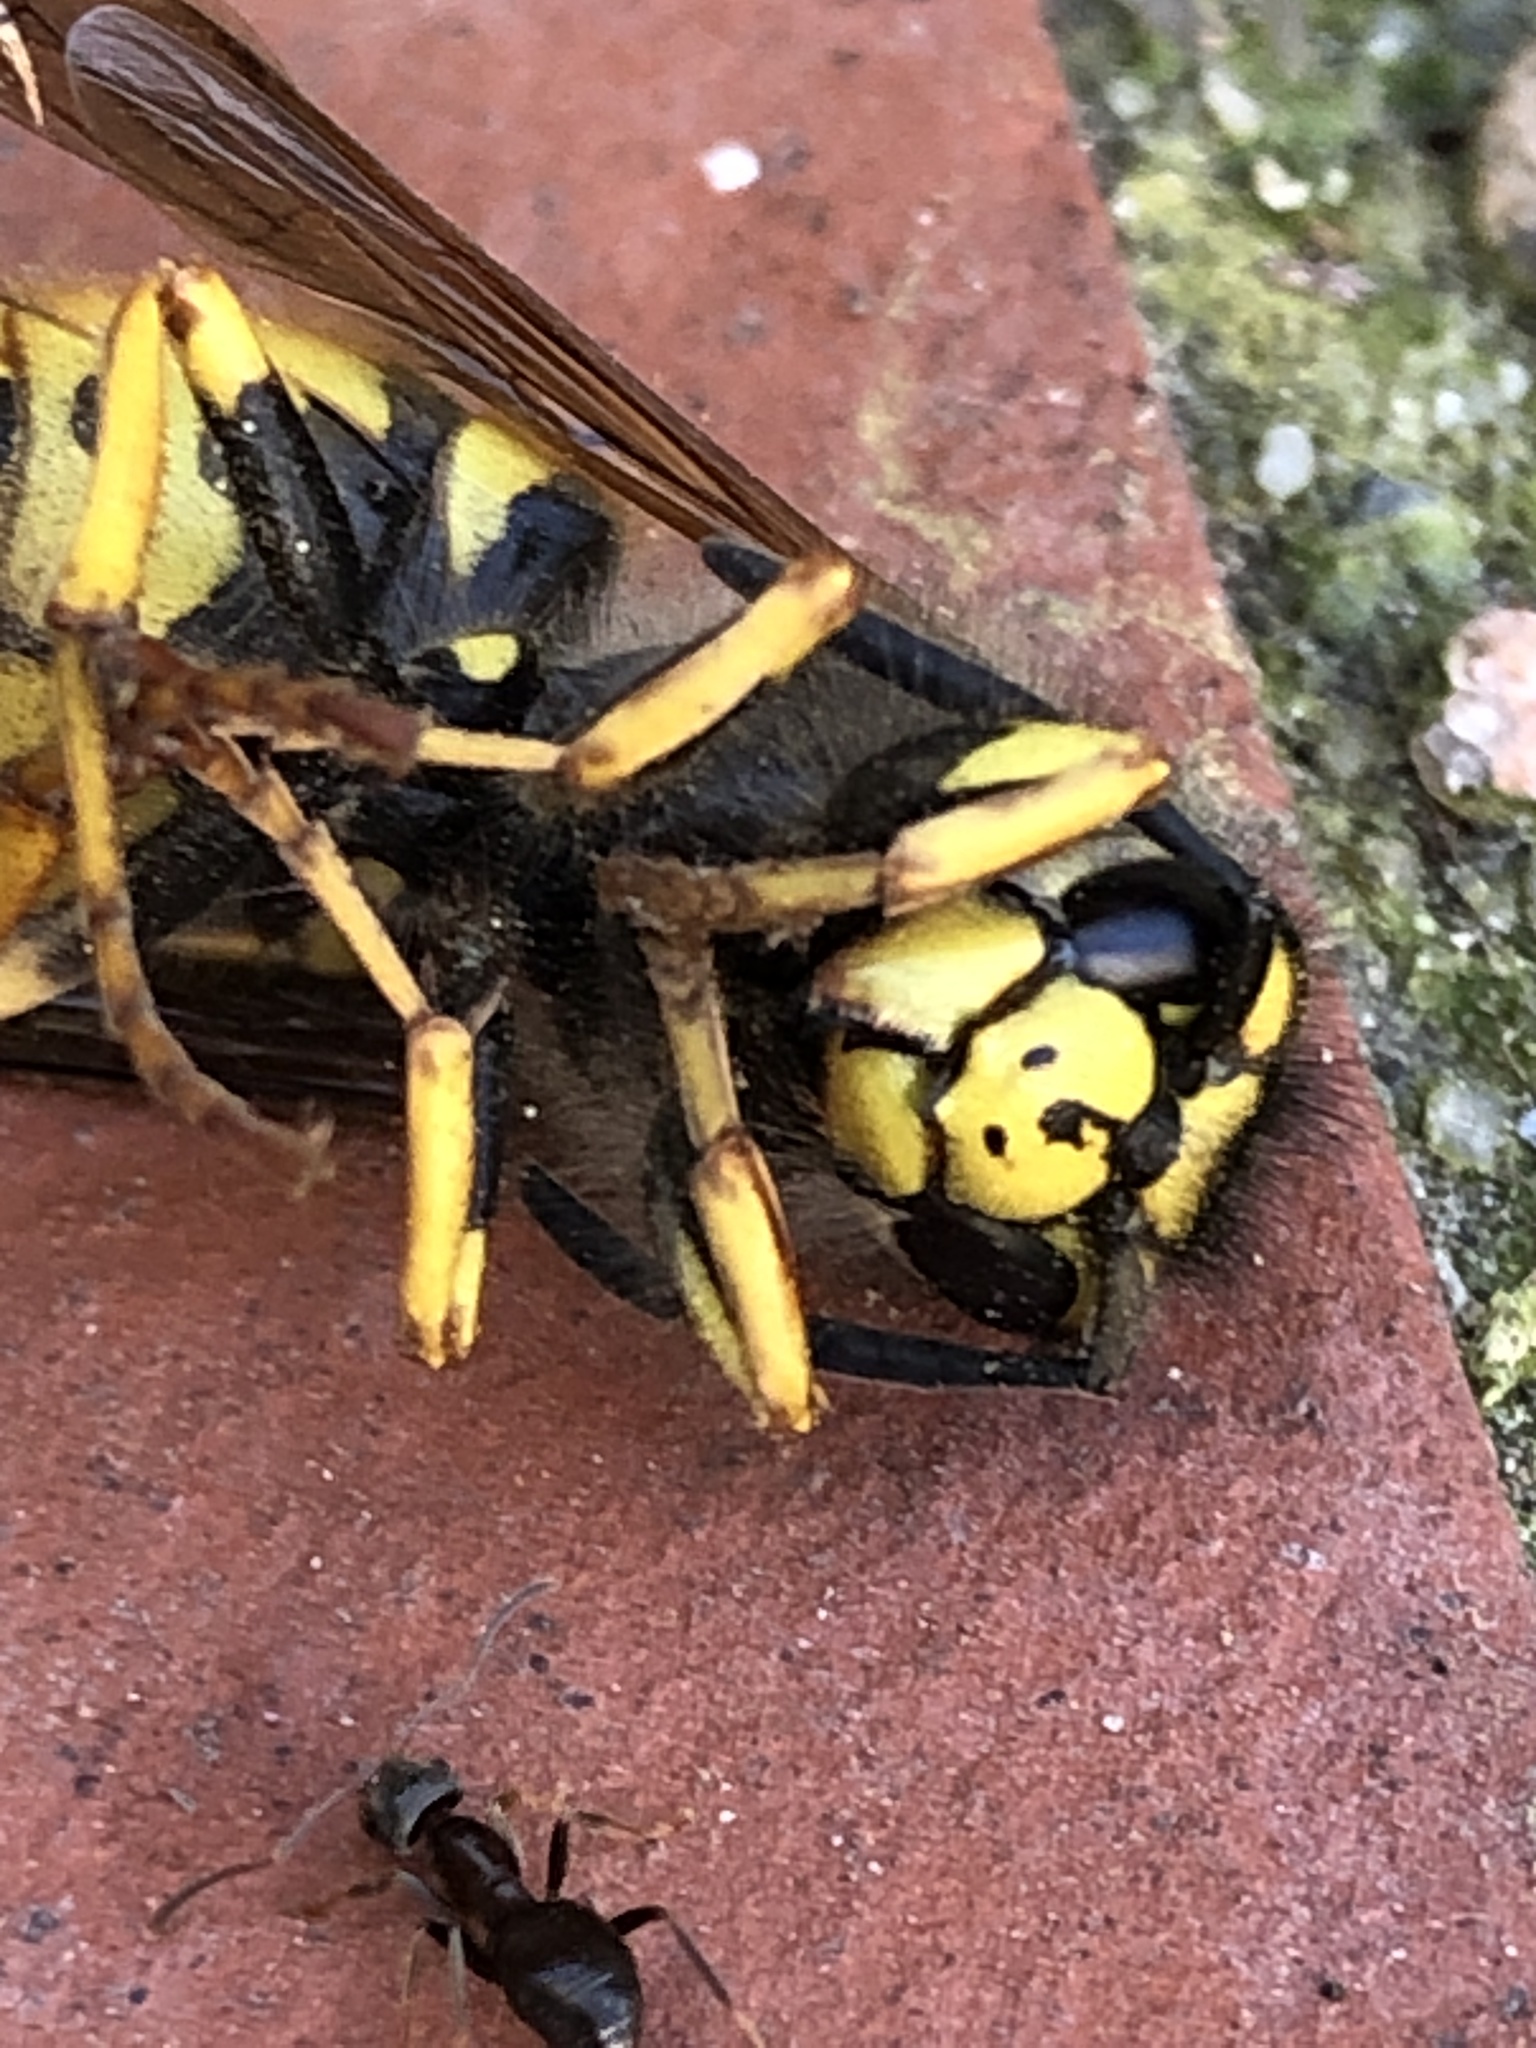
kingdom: Animalia
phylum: Arthropoda
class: Insecta
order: Hymenoptera
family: Vespidae
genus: Vespula
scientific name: Vespula germanica
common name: German wasp
